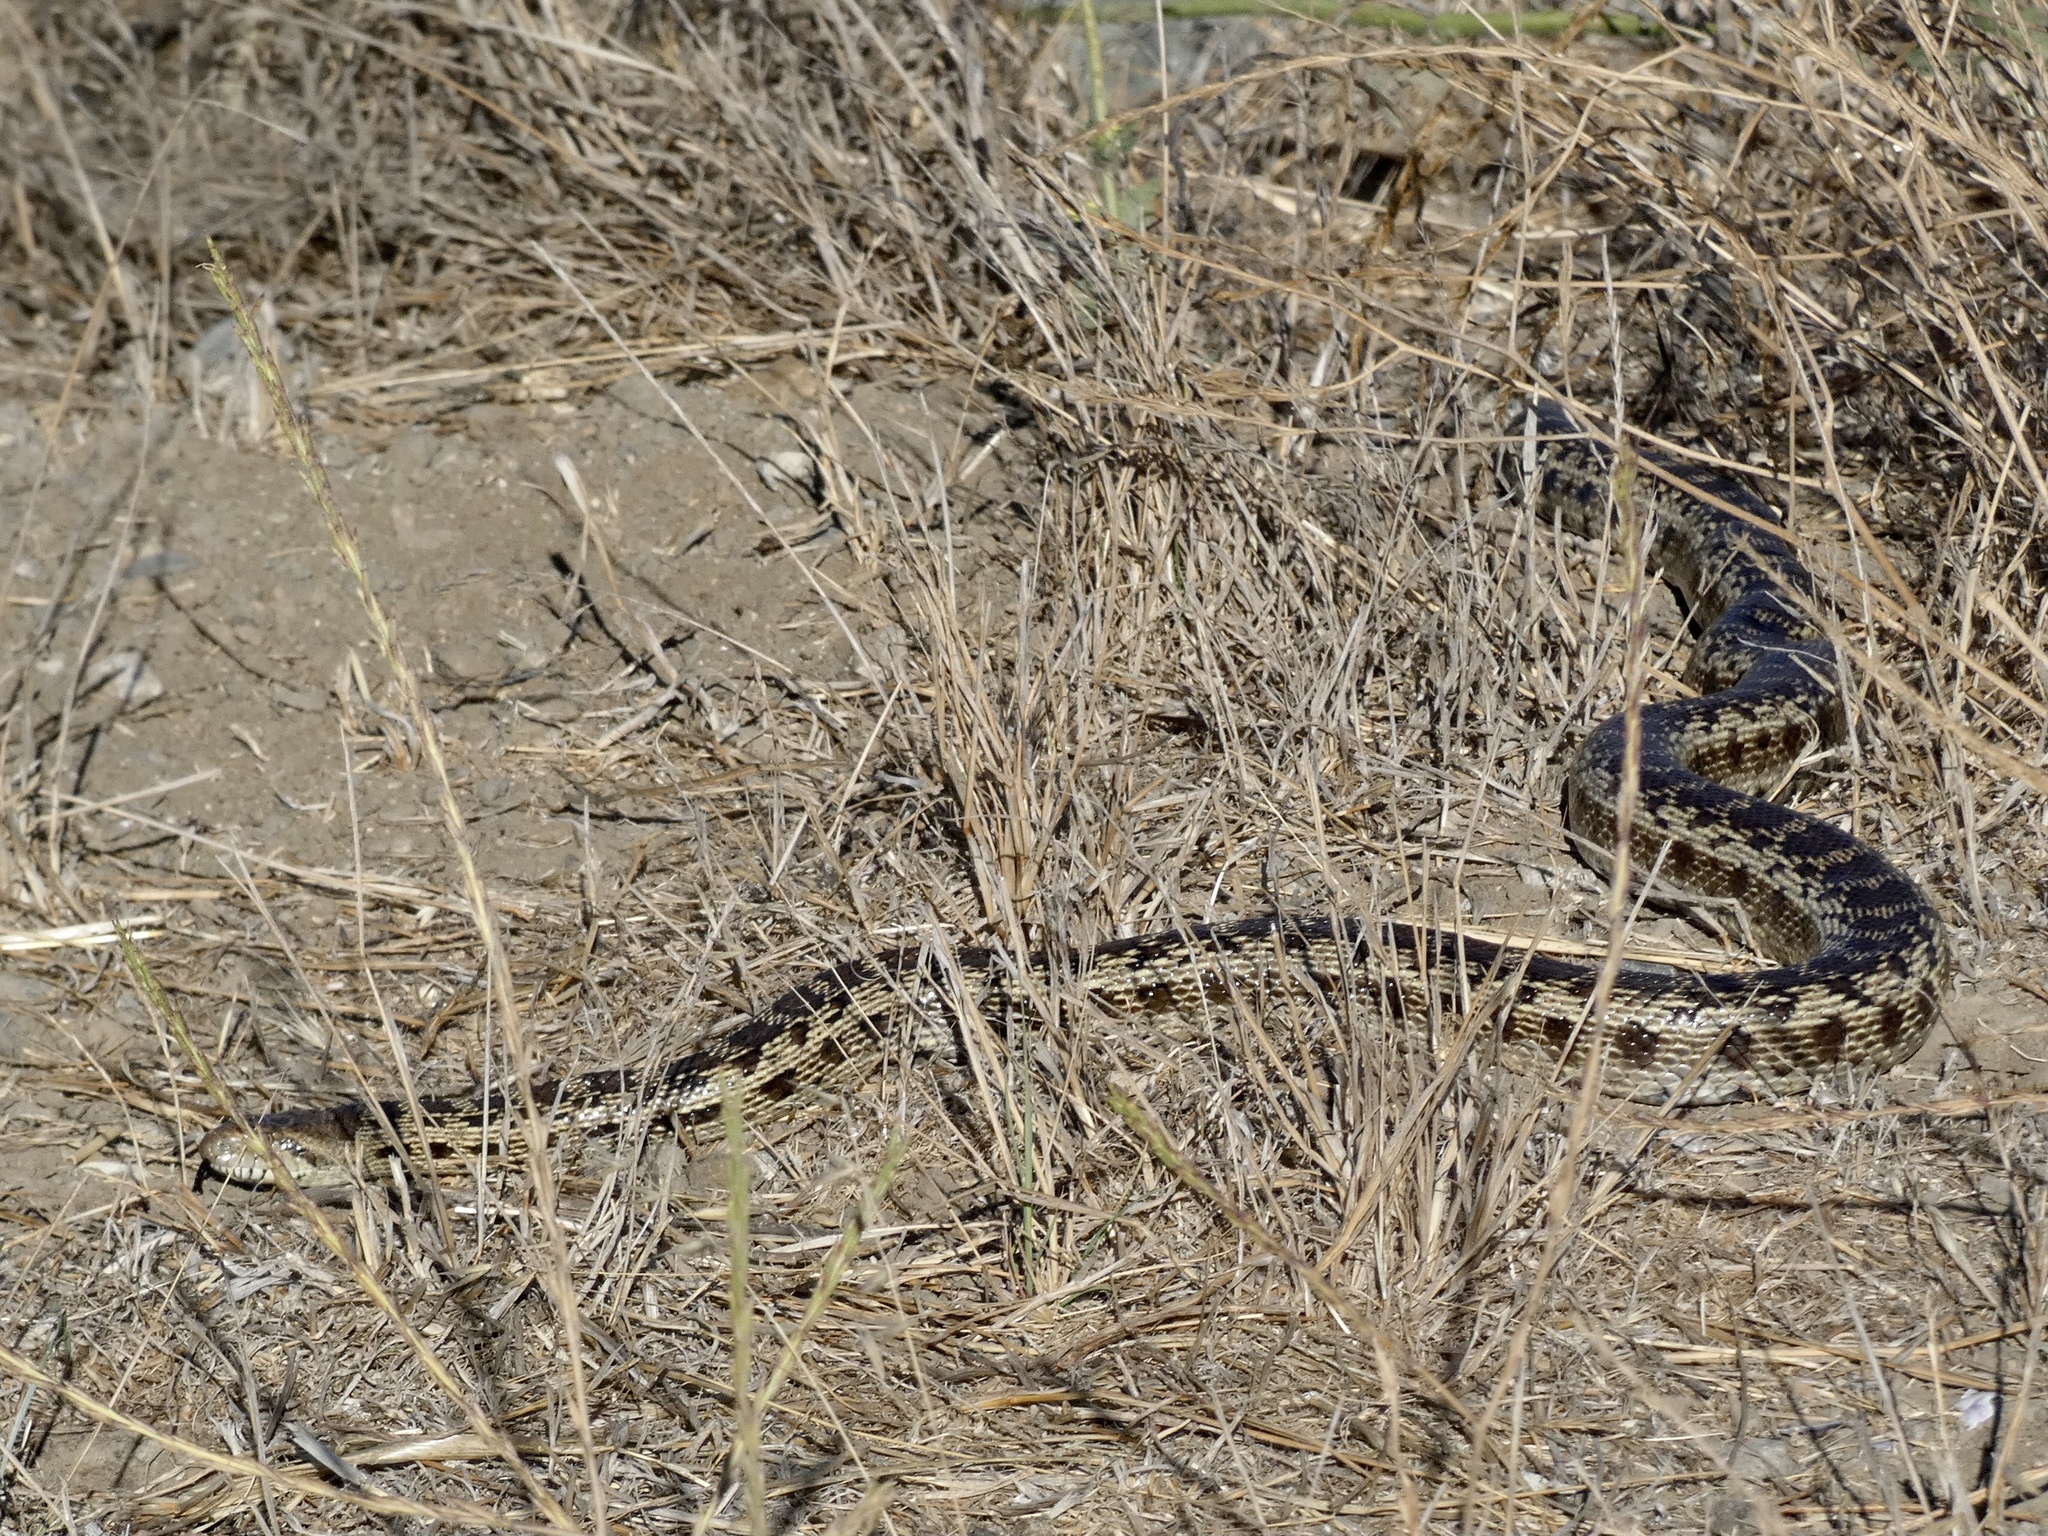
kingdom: Animalia
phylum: Chordata
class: Squamata
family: Colubridae
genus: Pituophis
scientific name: Pituophis catenifer
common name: Gopher snake
